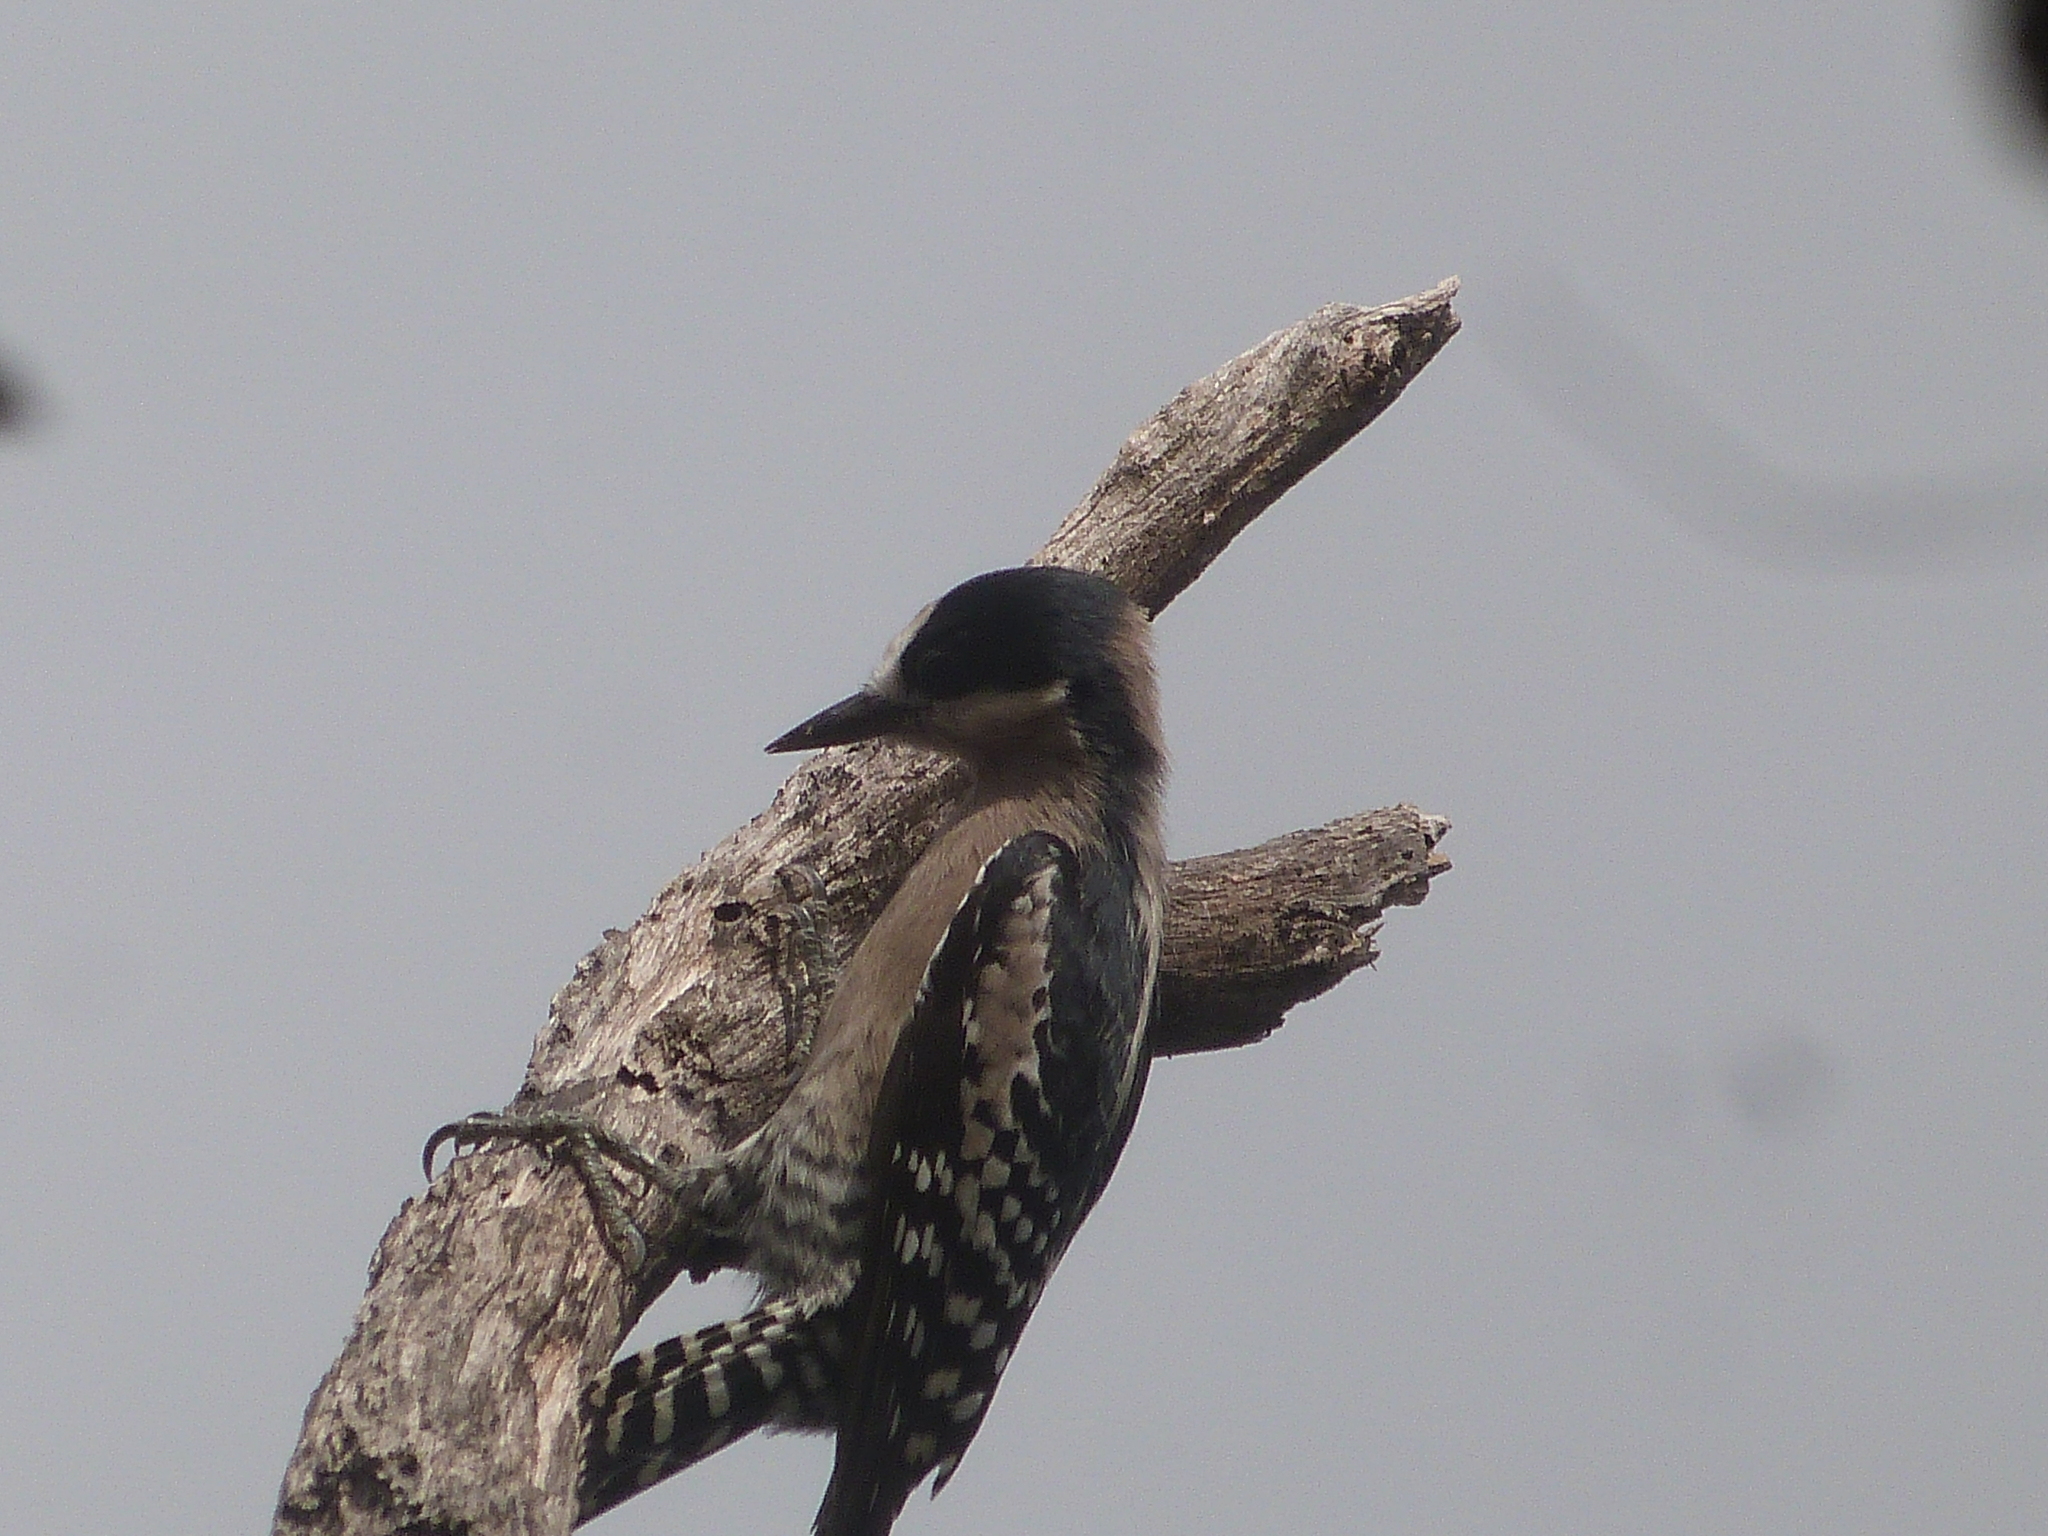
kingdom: Animalia
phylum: Chordata
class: Aves
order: Piciformes
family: Picidae
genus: Melanerpes
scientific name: Melanerpes cactorum
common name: White-fronted woodpecker
